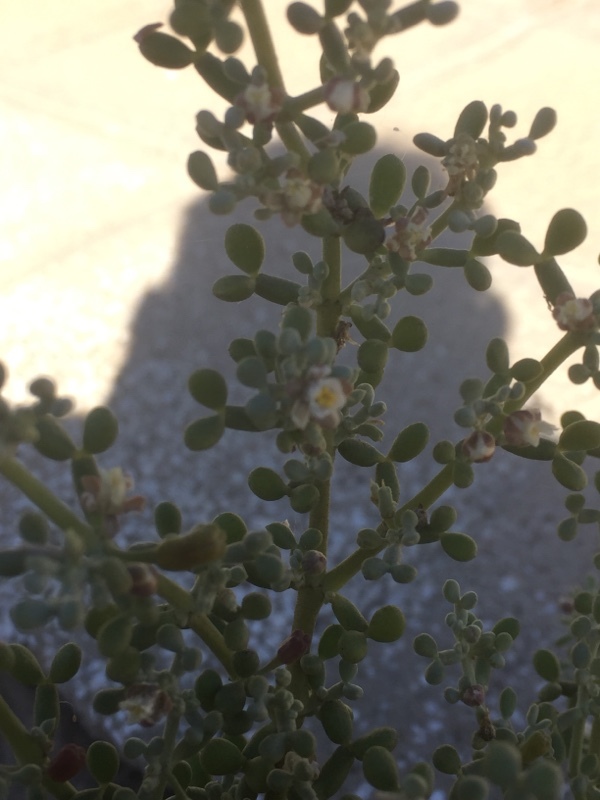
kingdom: Plantae
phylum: Tracheophyta
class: Magnoliopsida
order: Zygophyllales
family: Zygophyllaceae
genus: Tetraena
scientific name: Tetraena fontanesii
